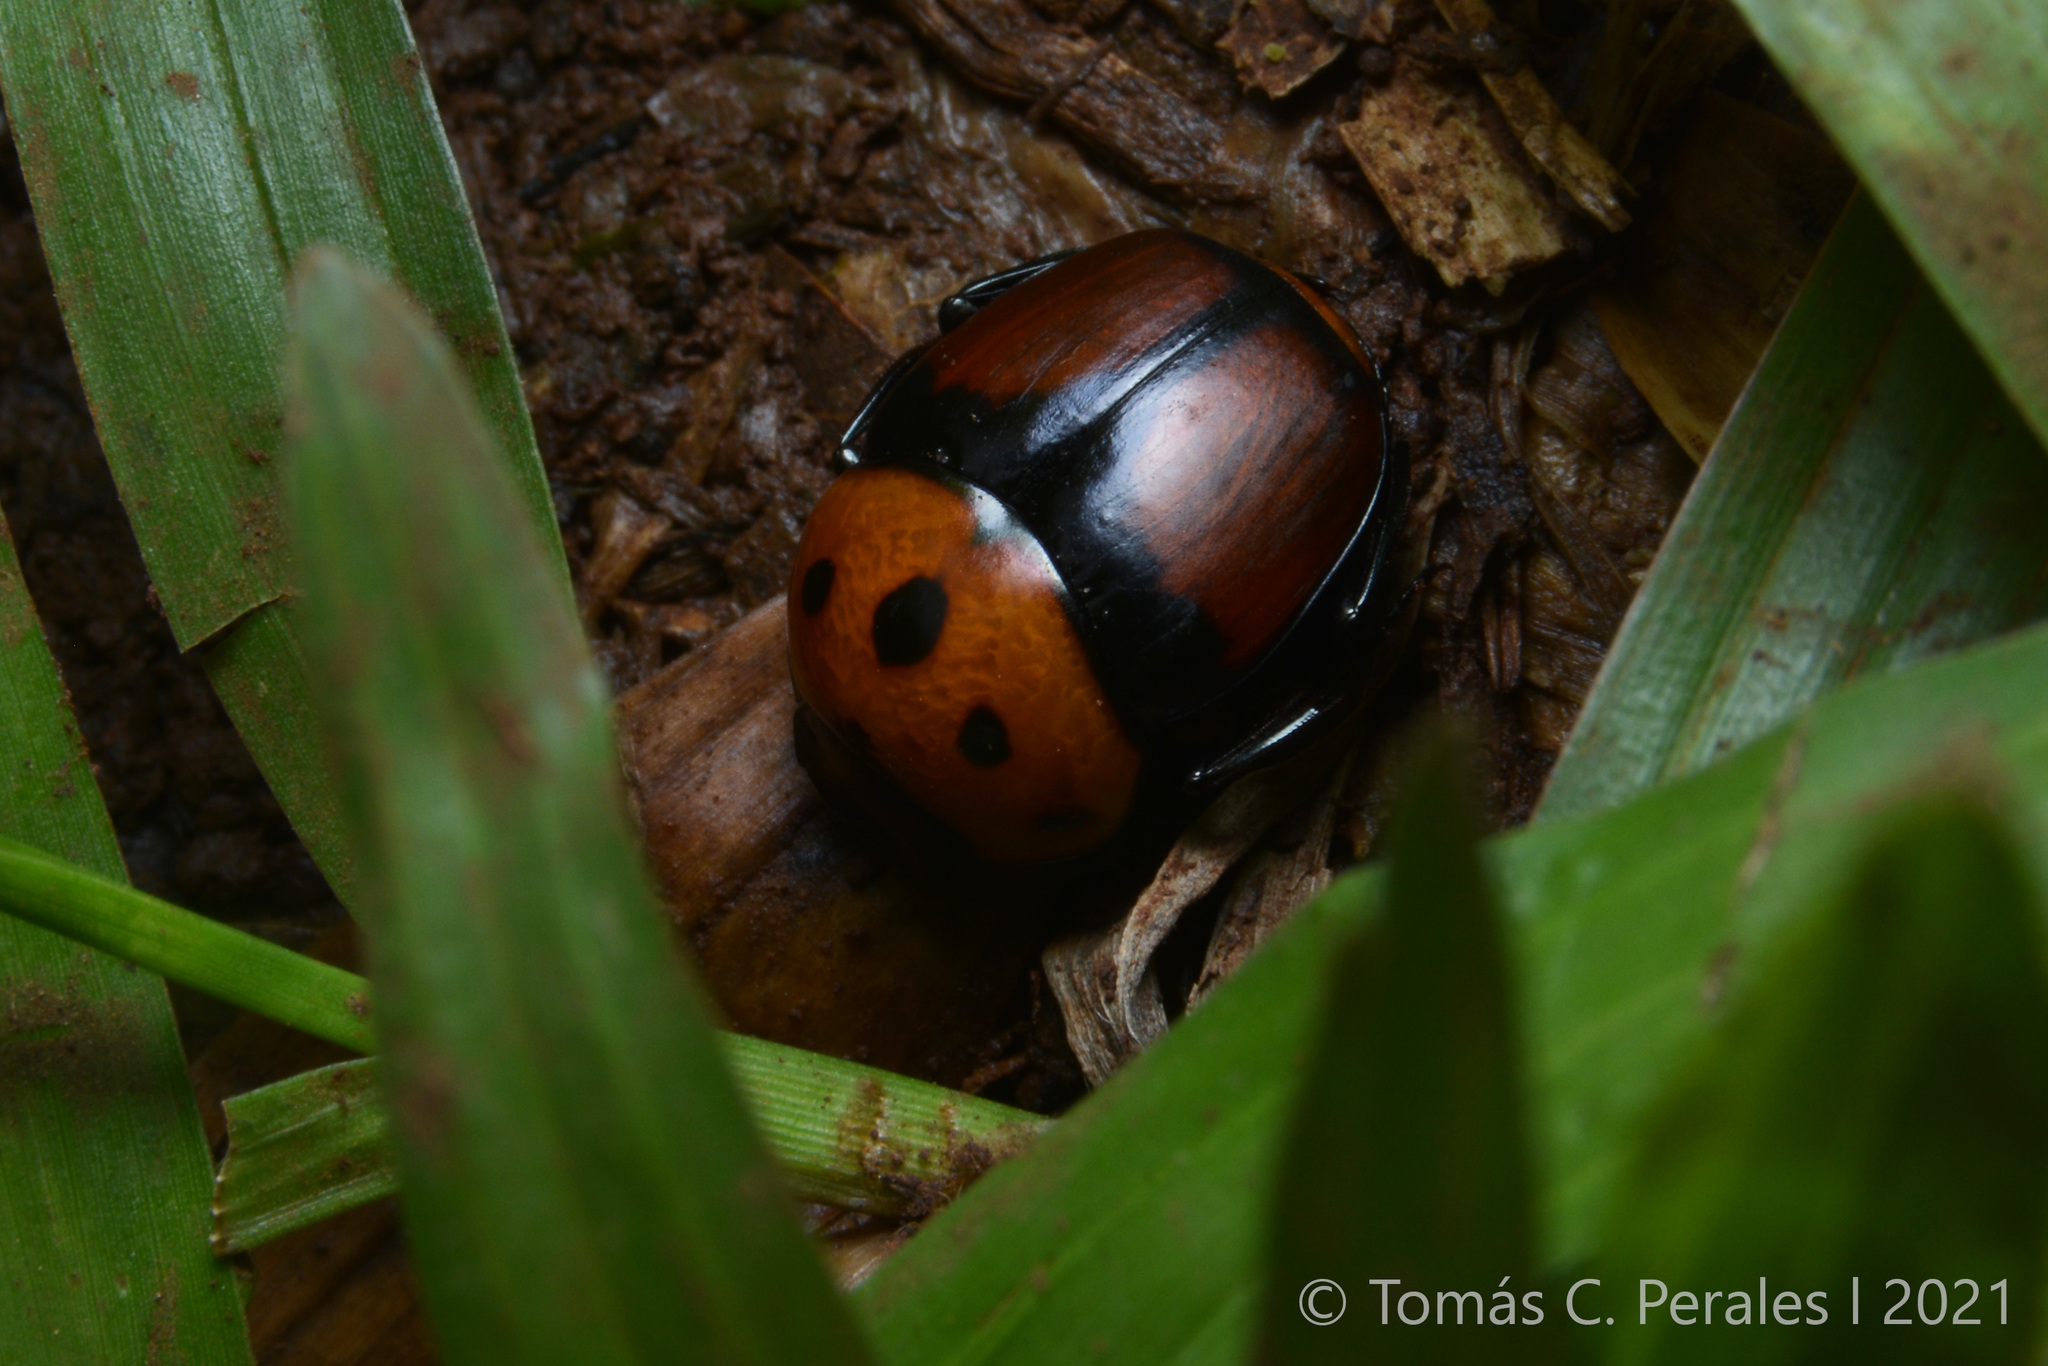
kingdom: Animalia
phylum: Arthropoda
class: Insecta
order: Coleoptera
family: Scarabaeidae
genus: Canthon
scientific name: Canthon quinquemaculatus
